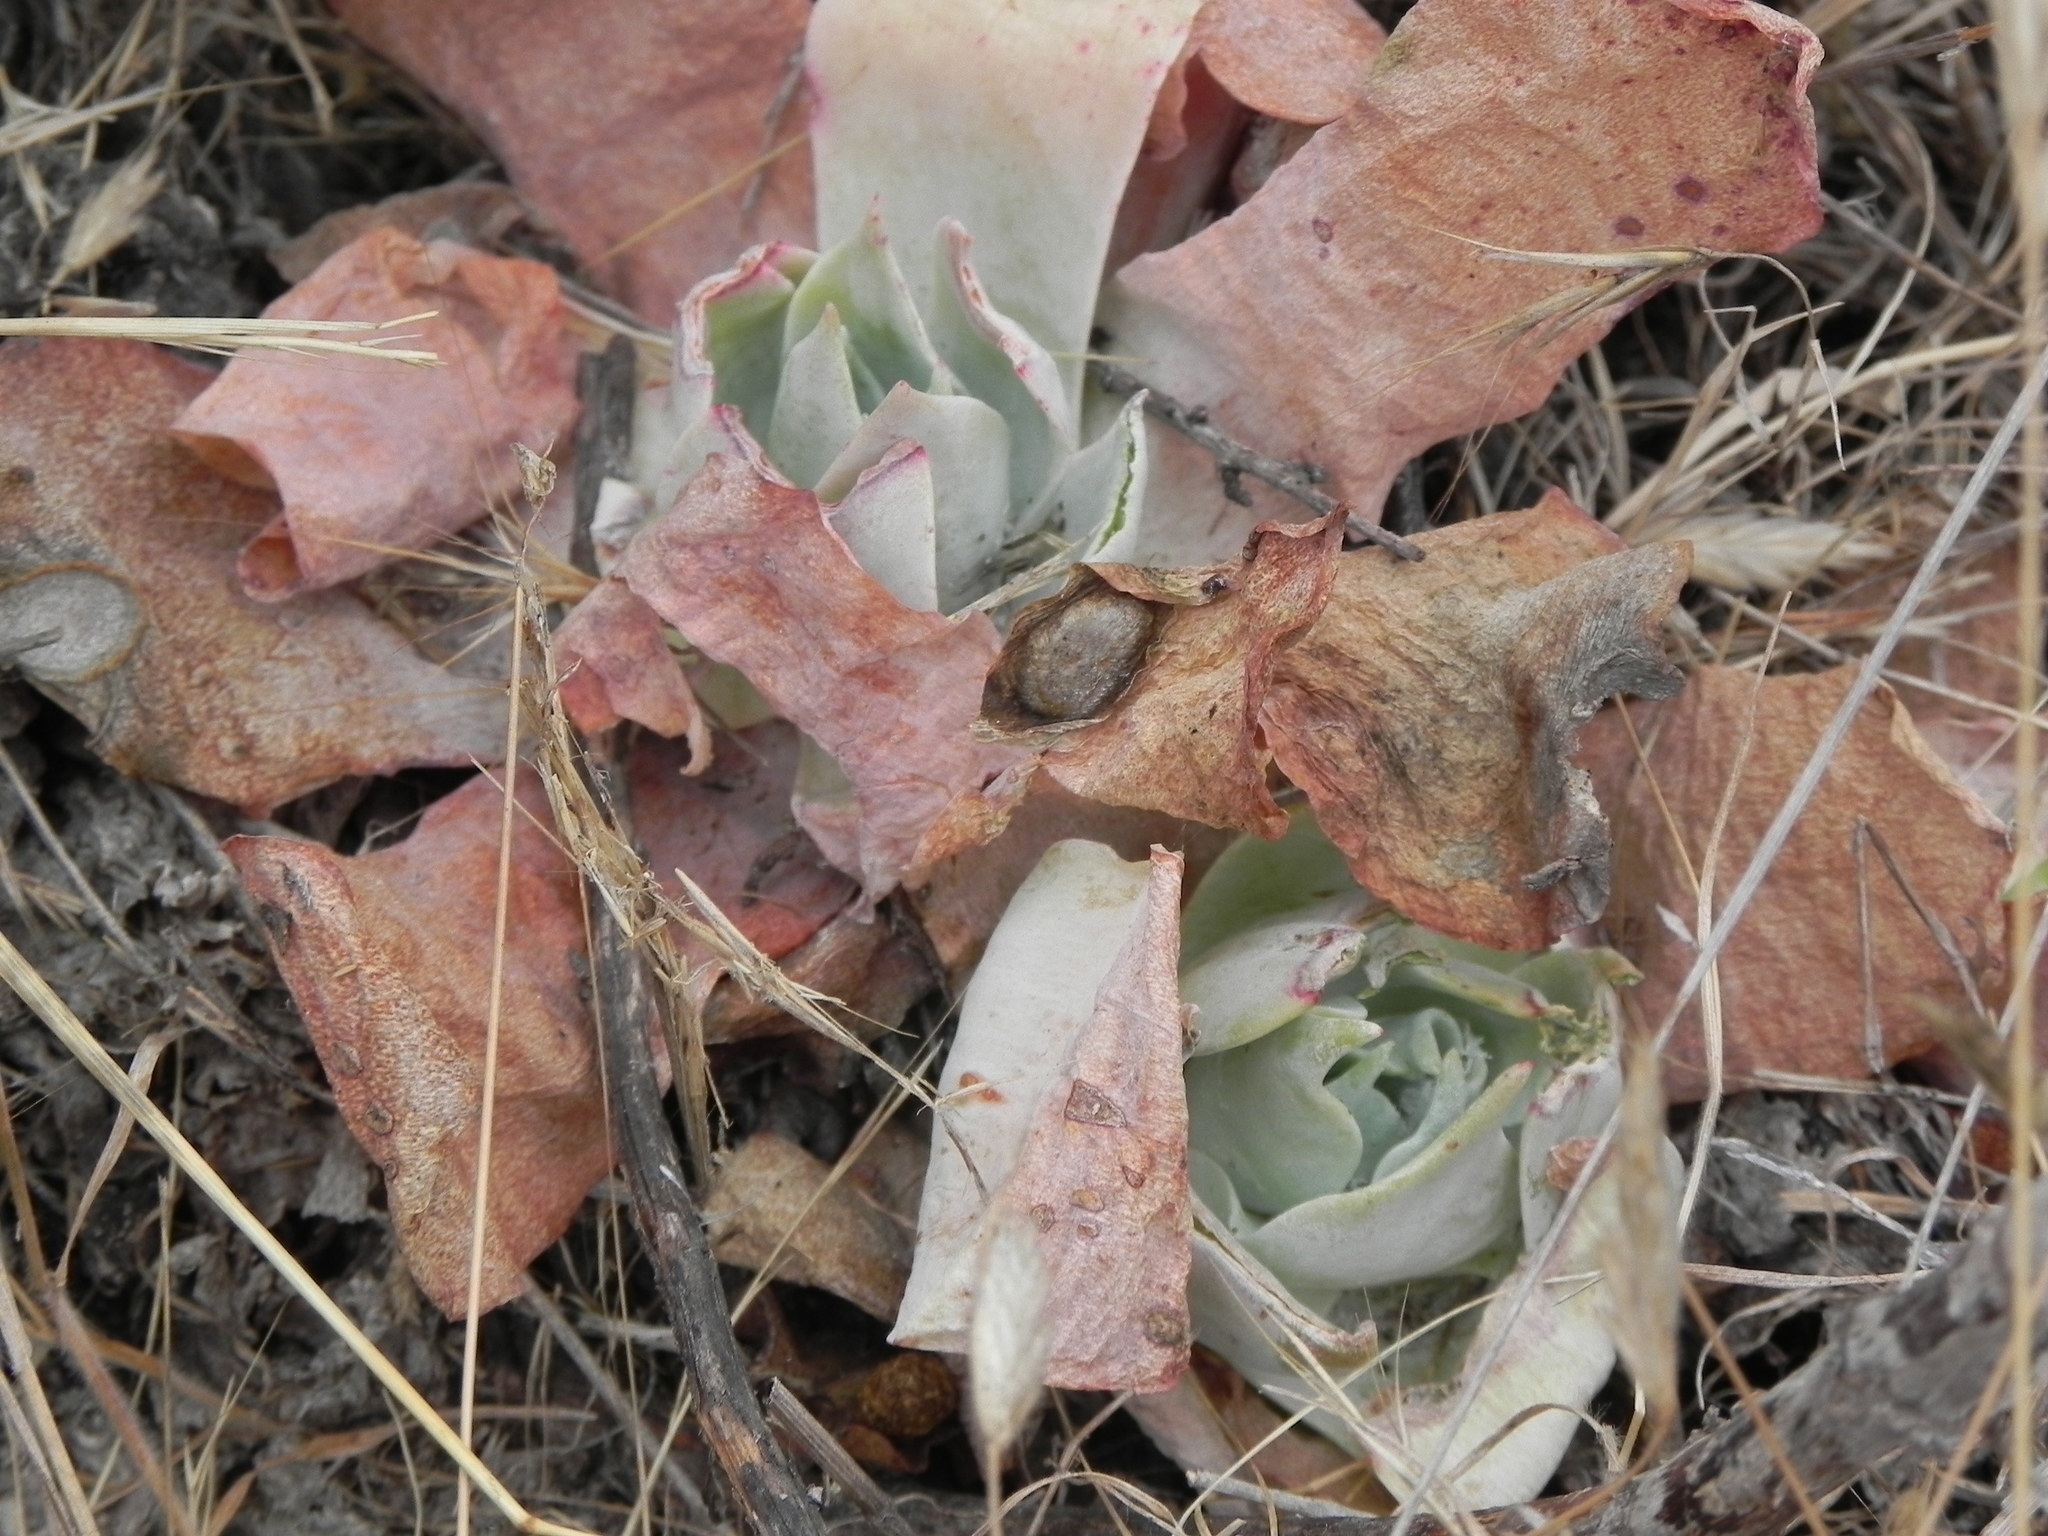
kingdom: Plantae
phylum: Tracheophyta
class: Magnoliopsida
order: Saxifragales
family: Crassulaceae
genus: Dudleya
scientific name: Dudleya pulverulenta
